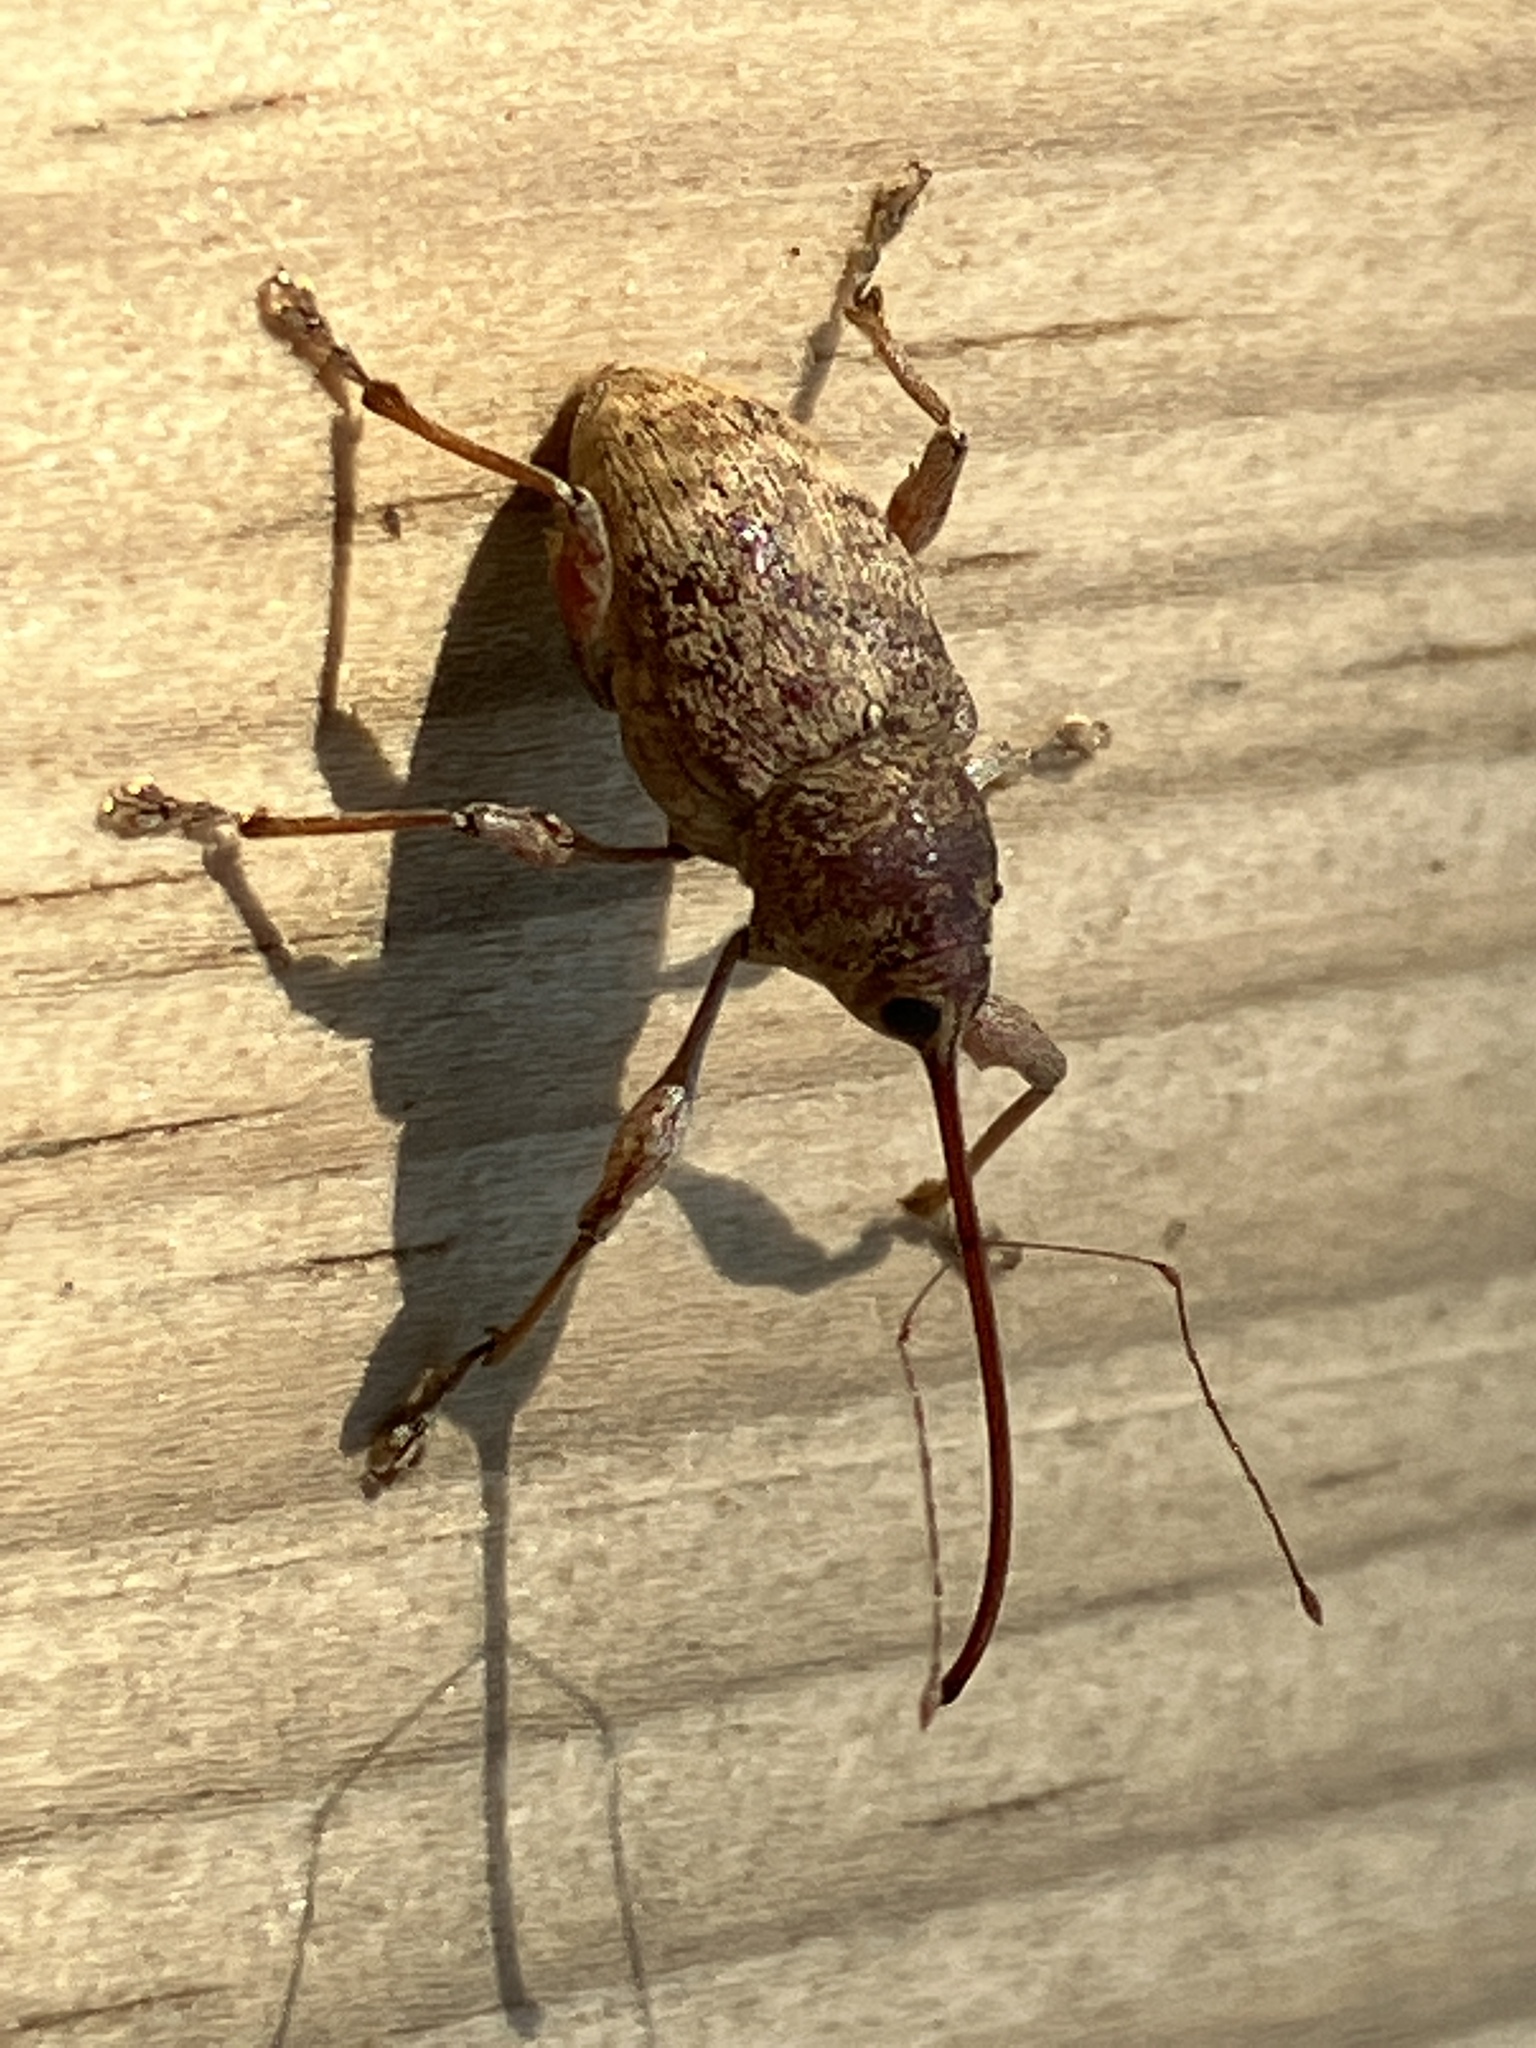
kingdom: Animalia
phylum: Arthropoda
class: Insecta
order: Coleoptera
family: Curculionidae
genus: Curculio
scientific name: Curculio elephas
